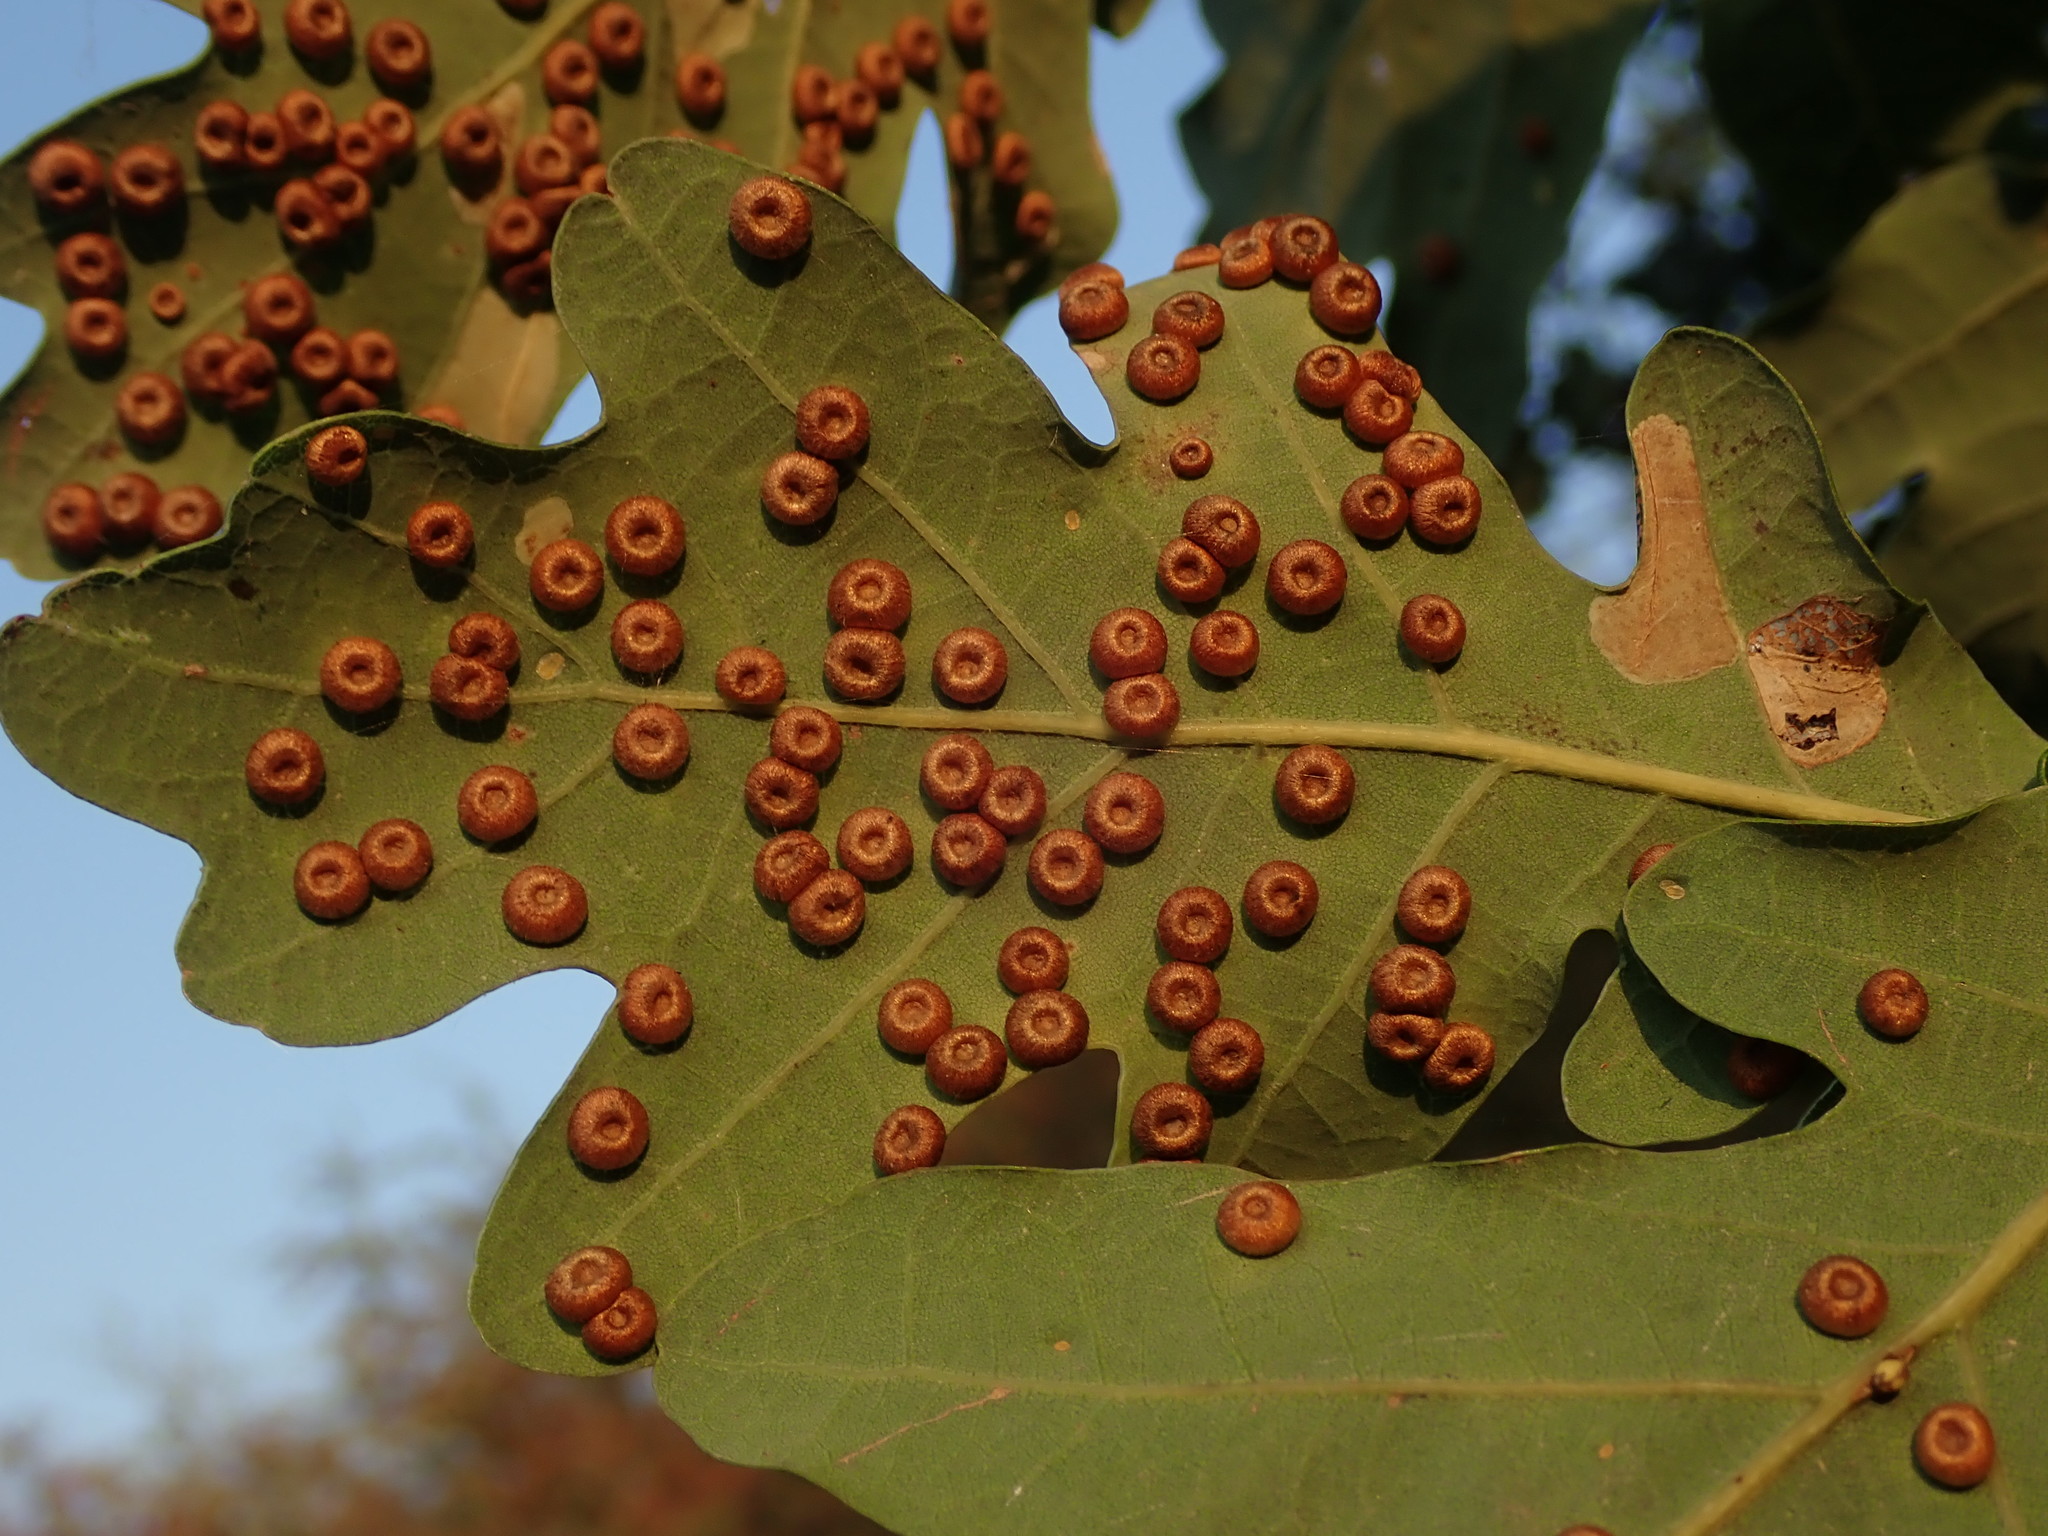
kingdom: Animalia
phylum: Arthropoda
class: Insecta
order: Hymenoptera
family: Cynipidae
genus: Neuroterus
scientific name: Neuroterus numismalis
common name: Silk-button spangle gall
